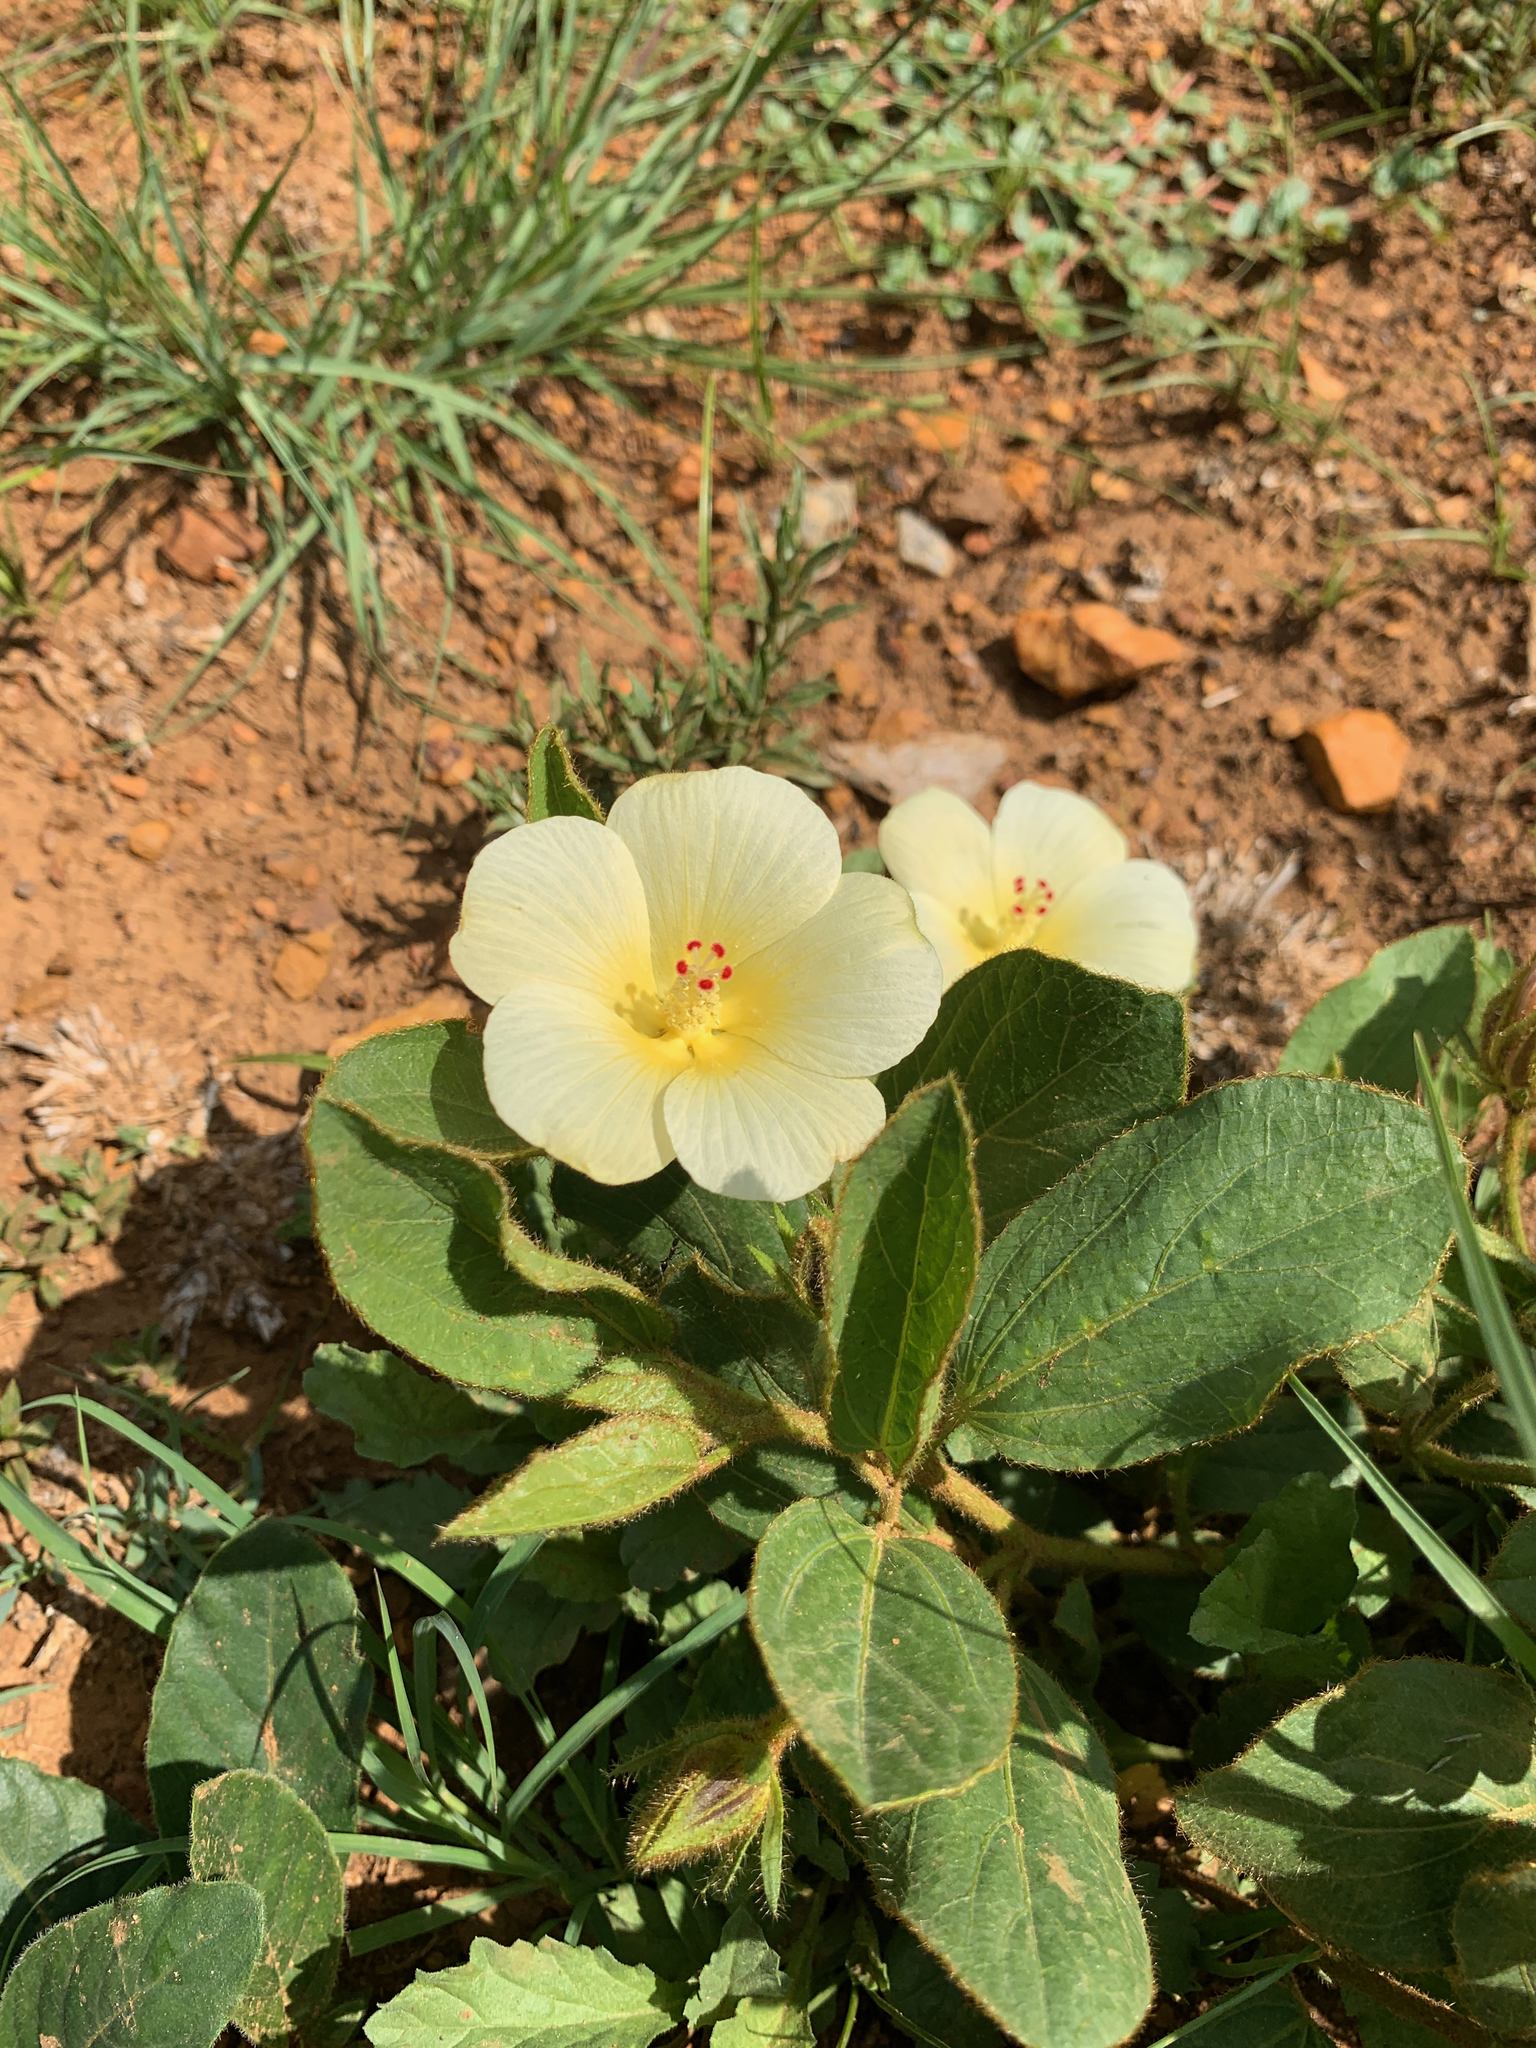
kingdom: Plantae
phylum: Tracheophyta
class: Magnoliopsida
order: Malvales
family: Malvaceae
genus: Hibiscus
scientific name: Hibiscus aethiopicus
